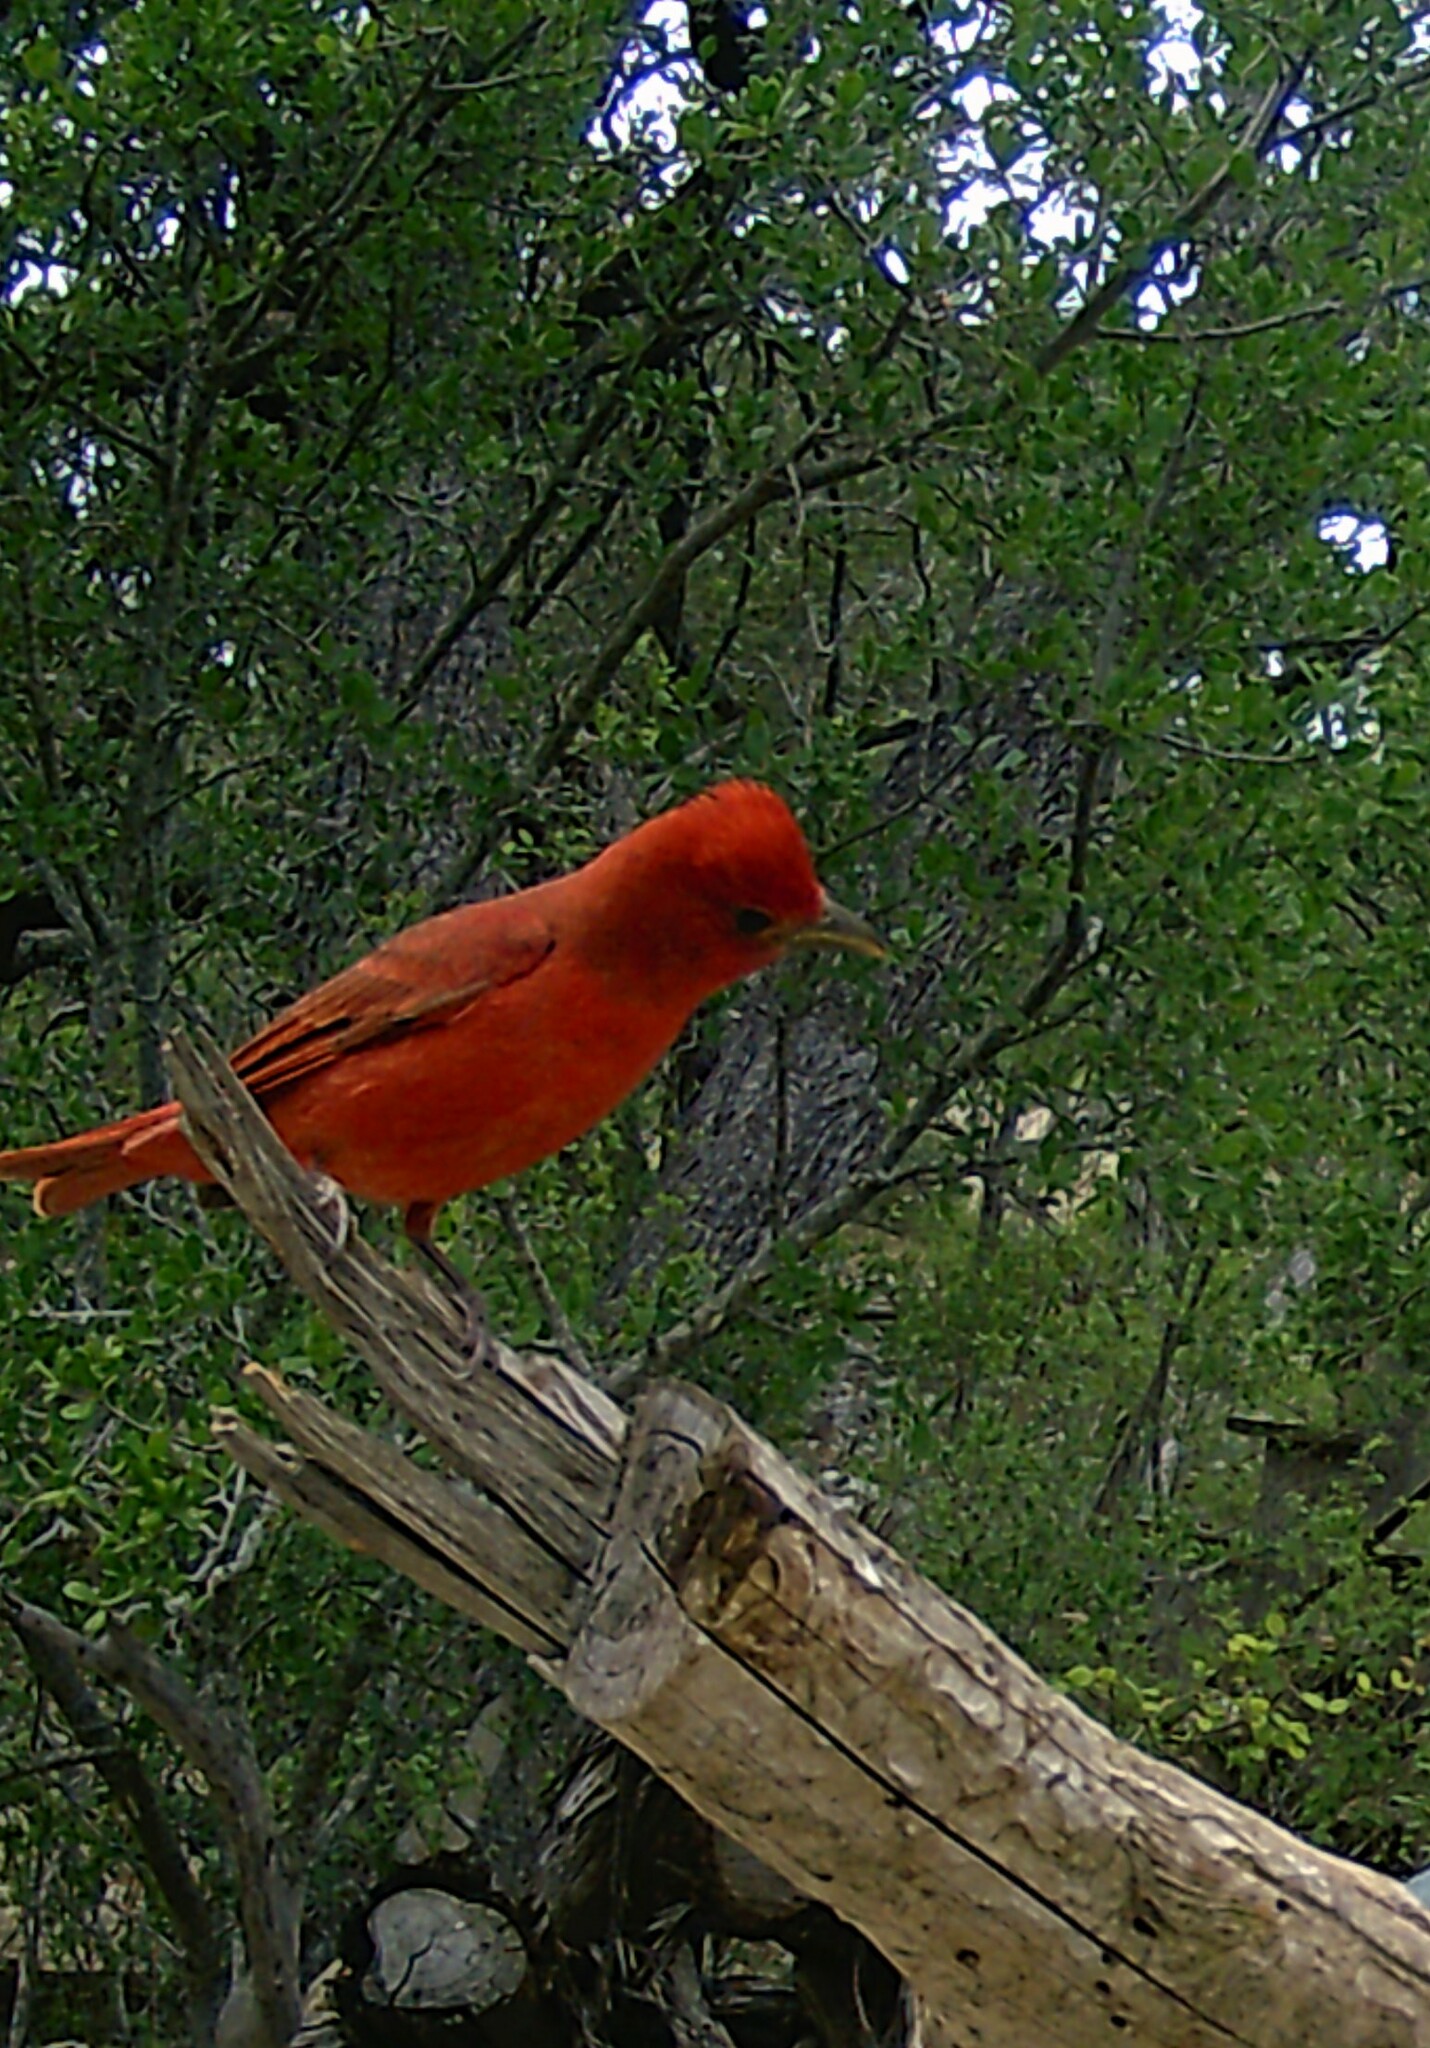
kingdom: Animalia
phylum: Chordata
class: Aves
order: Passeriformes
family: Cardinalidae
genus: Piranga
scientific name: Piranga rubra
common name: Summer tanager
